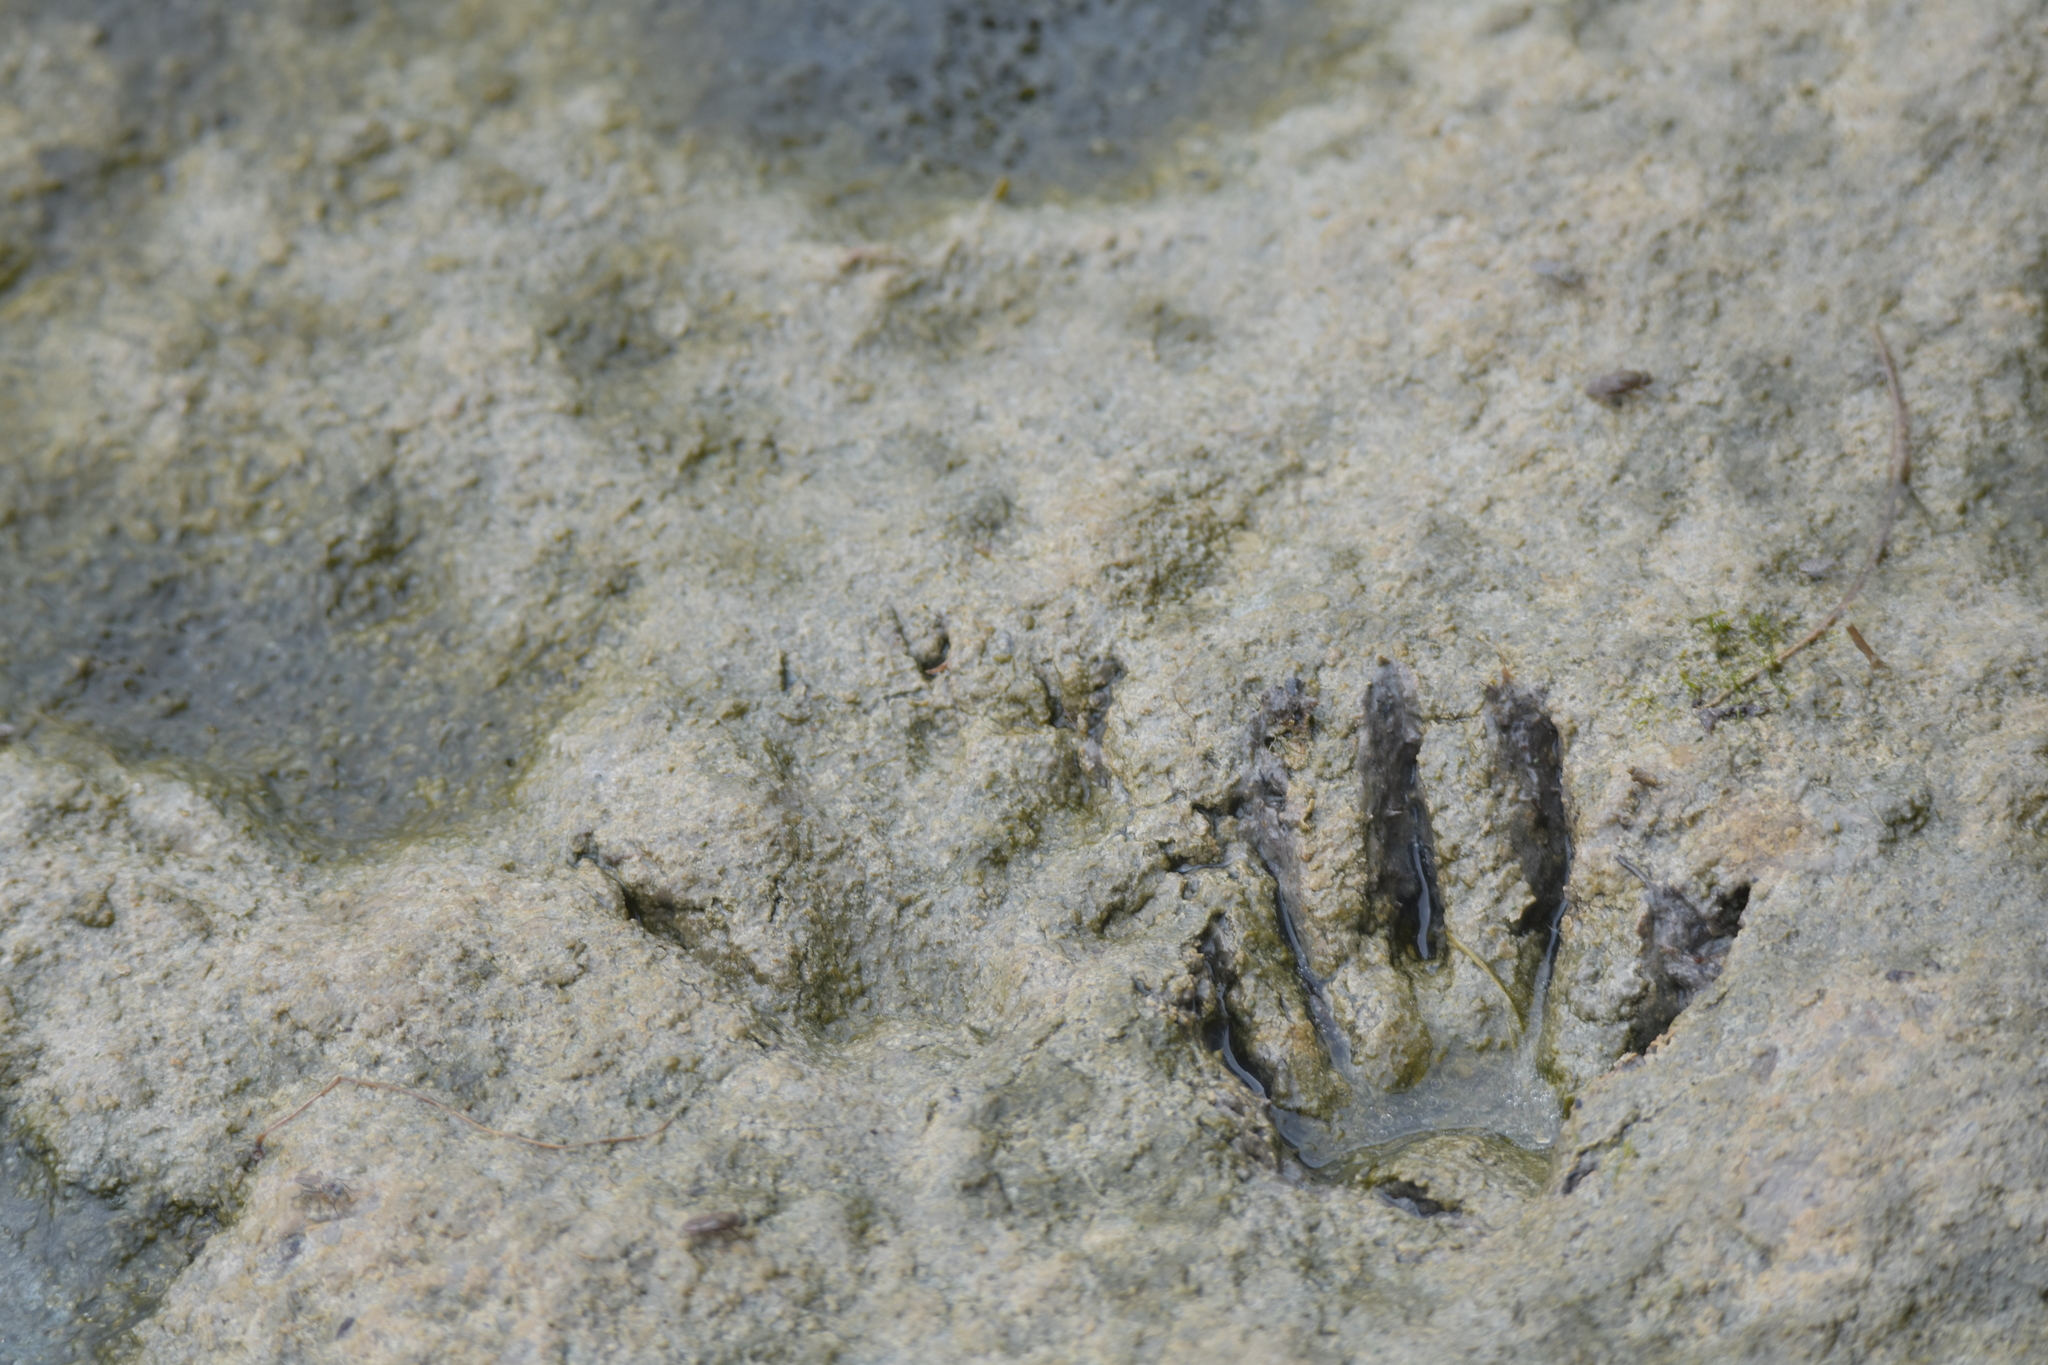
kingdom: Animalia
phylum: Chordata
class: Mammalia
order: Carnivora
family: Procyonidae
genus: Procyon
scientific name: Procyon lotor
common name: Raccoon
